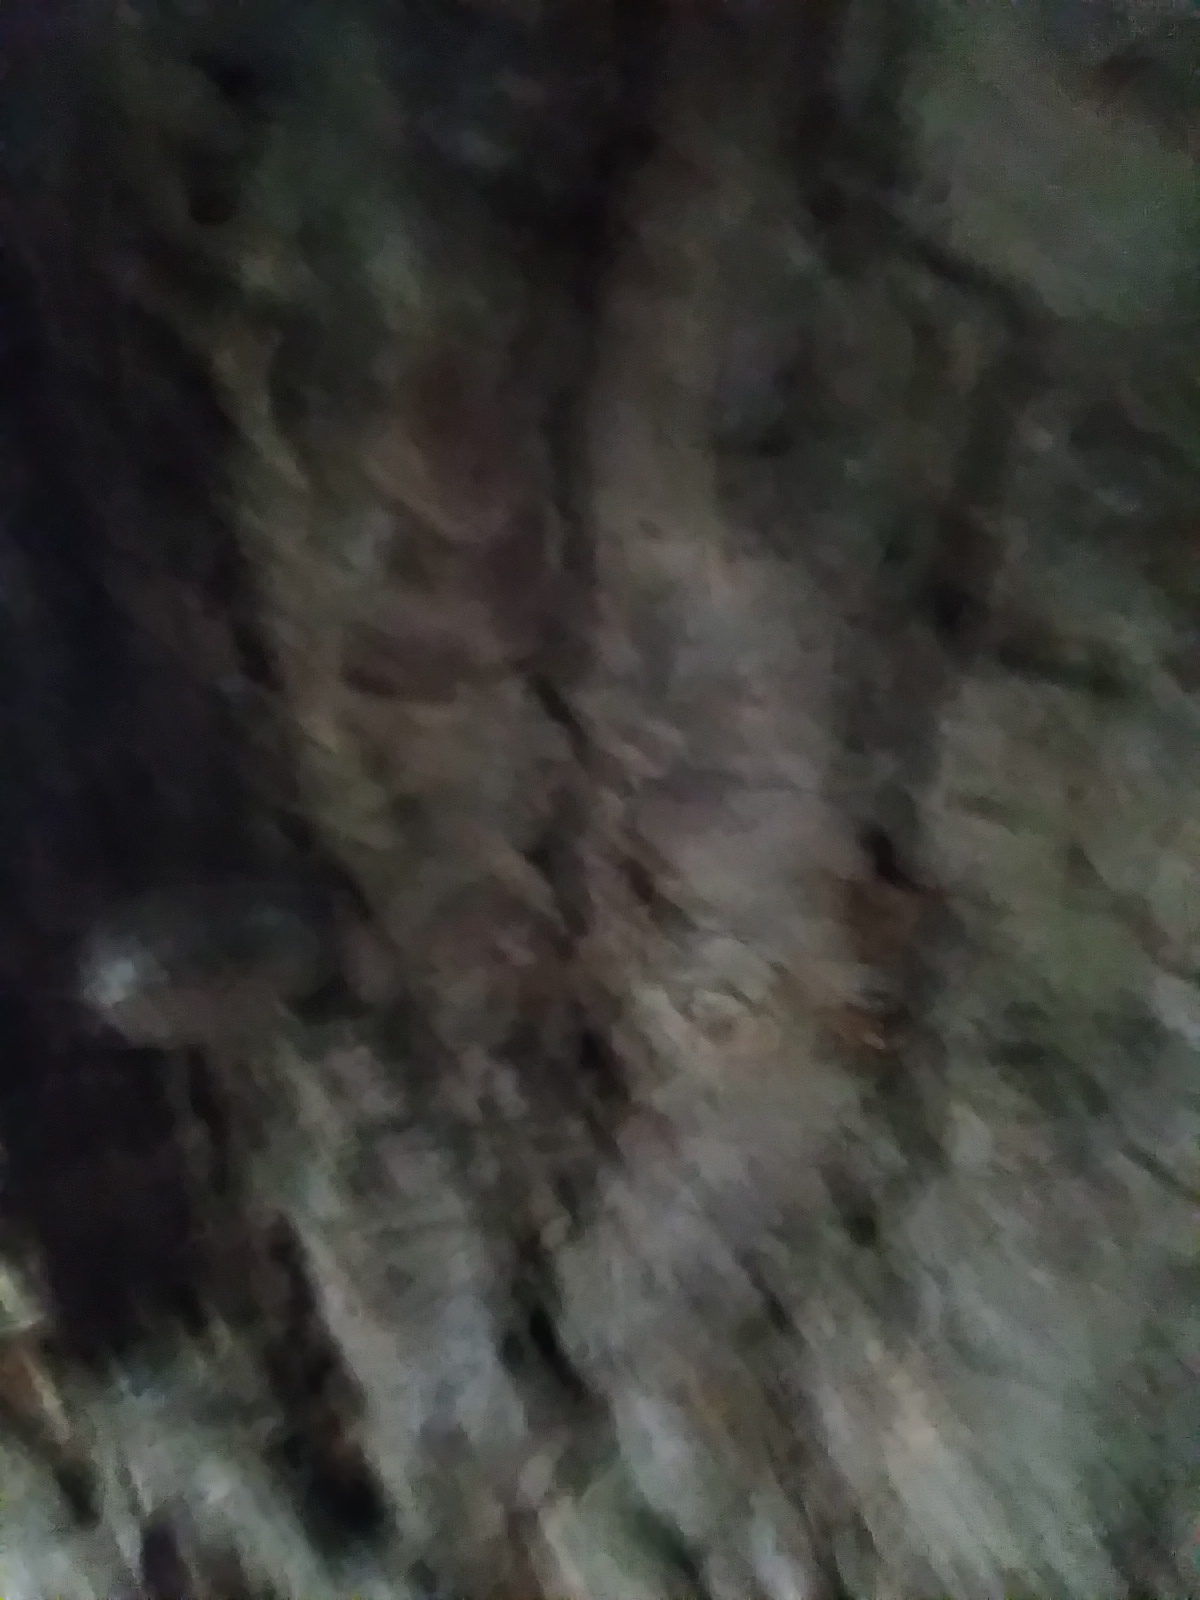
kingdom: Animalia
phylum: Arthropoda
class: Malacostraca
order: Isopoda
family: Philosciidae
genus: Philoscia
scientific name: Philoscia muscorum
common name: Common striped woodlouse
